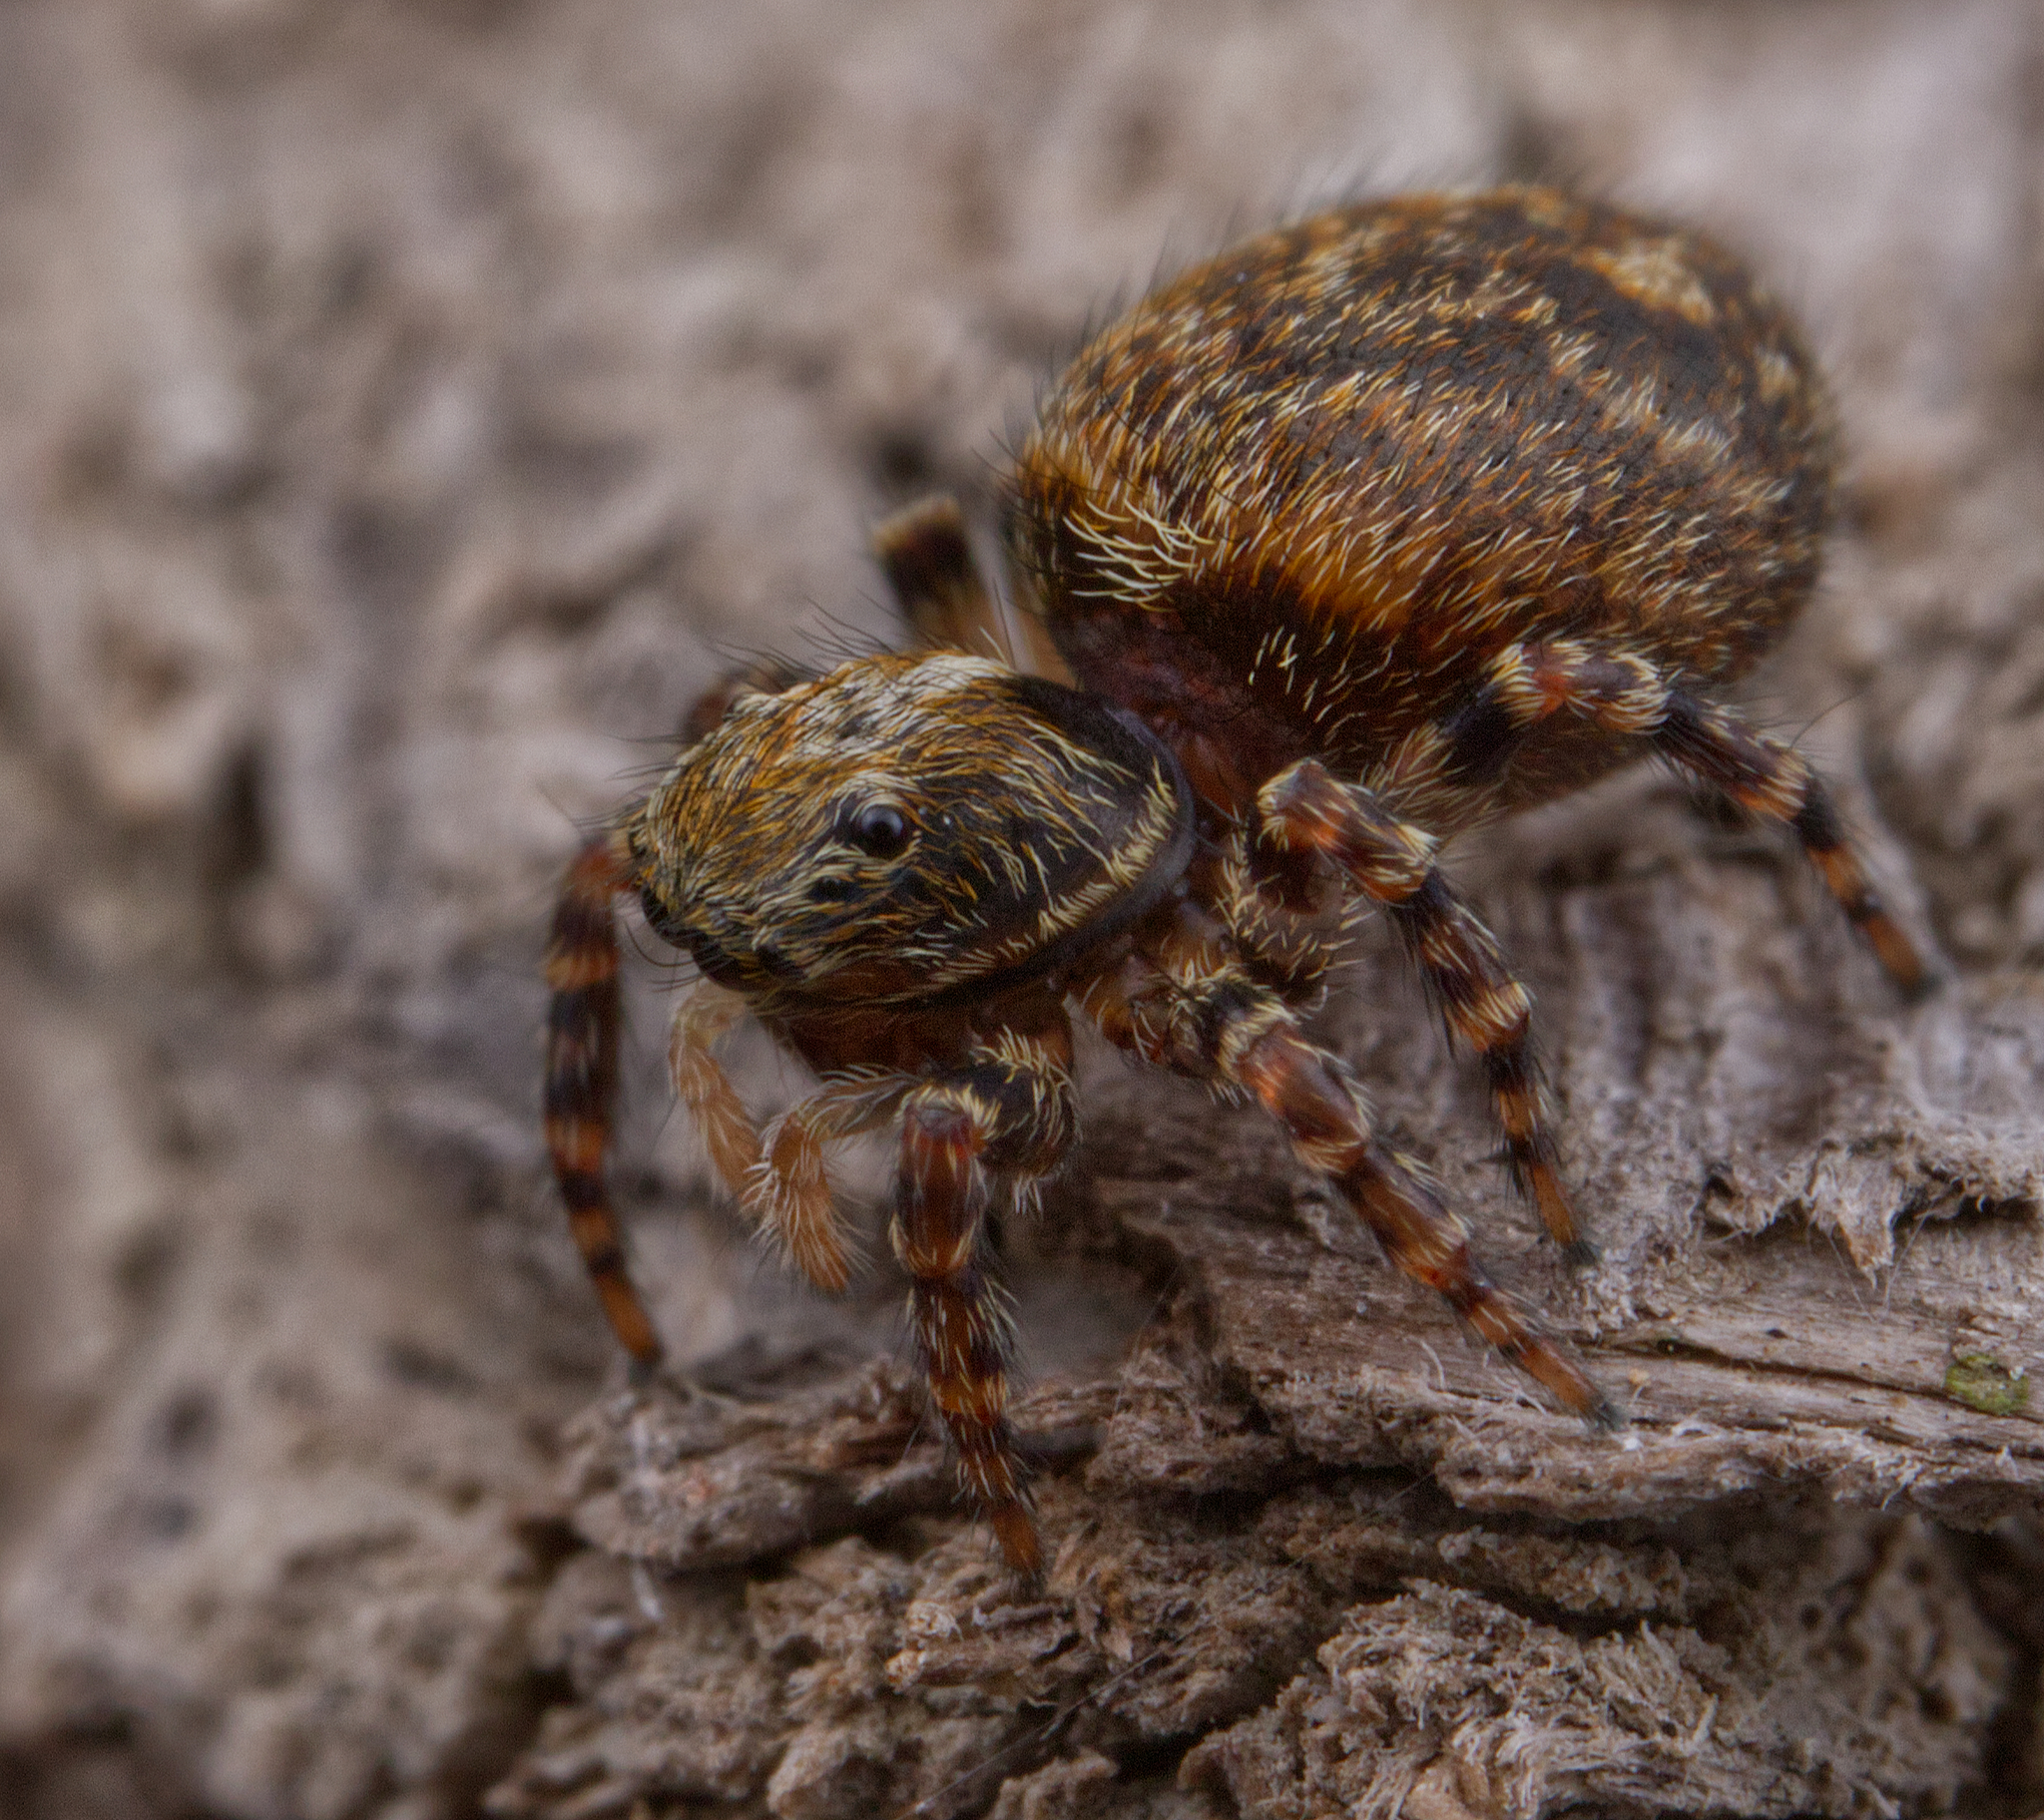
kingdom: Animalia
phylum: Arthropoda
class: Arachnida
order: Araneae
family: Salticidae
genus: Pseudeuophrys
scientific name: Pseudeuophrys erratica
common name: Jumping spider
